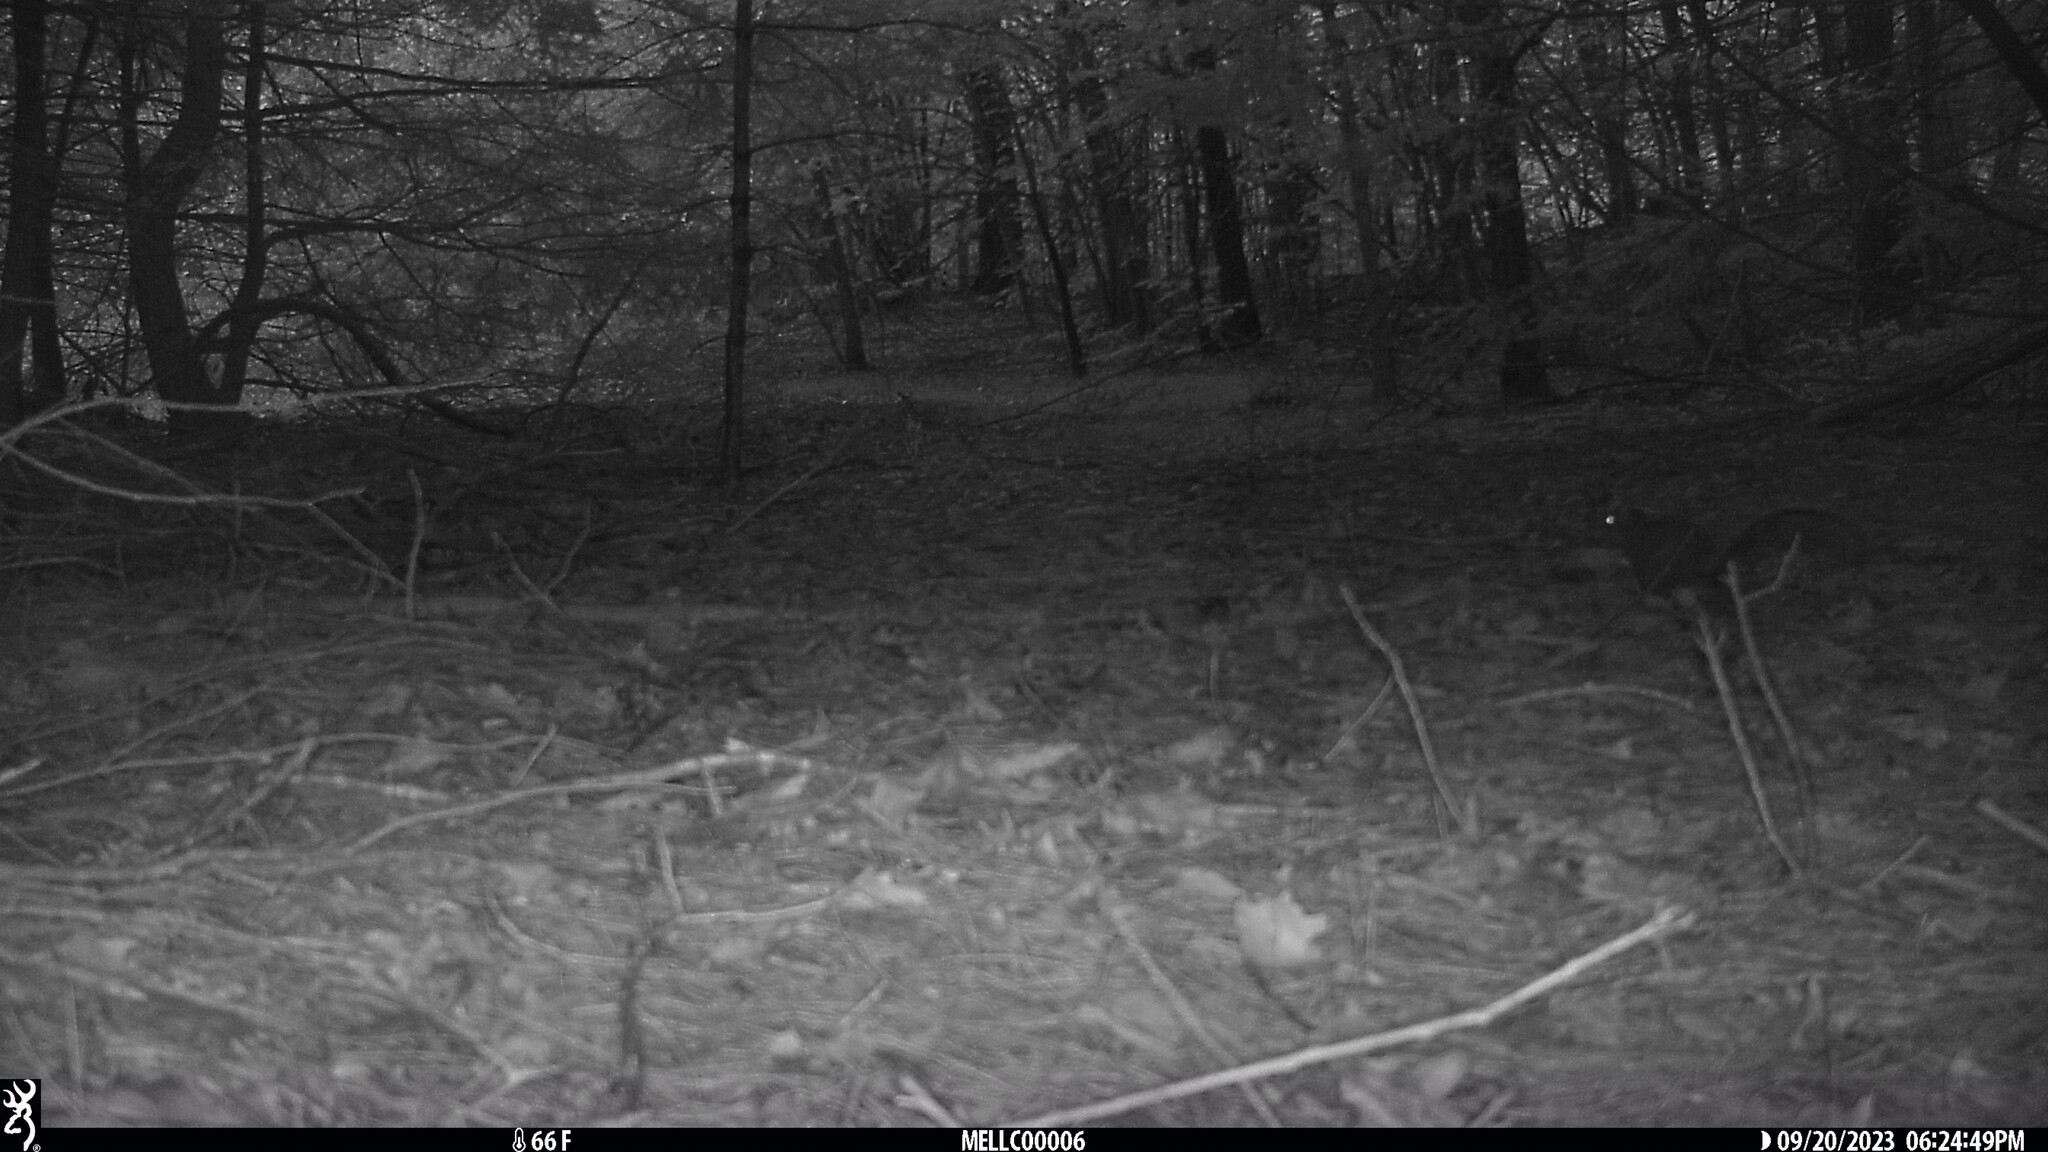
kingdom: Animalia
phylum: Chordata
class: Mammalia
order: Rodentia
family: Sciuridae
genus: Sciurus
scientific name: Sciurus carolinensis
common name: Eastern gray squirrel
